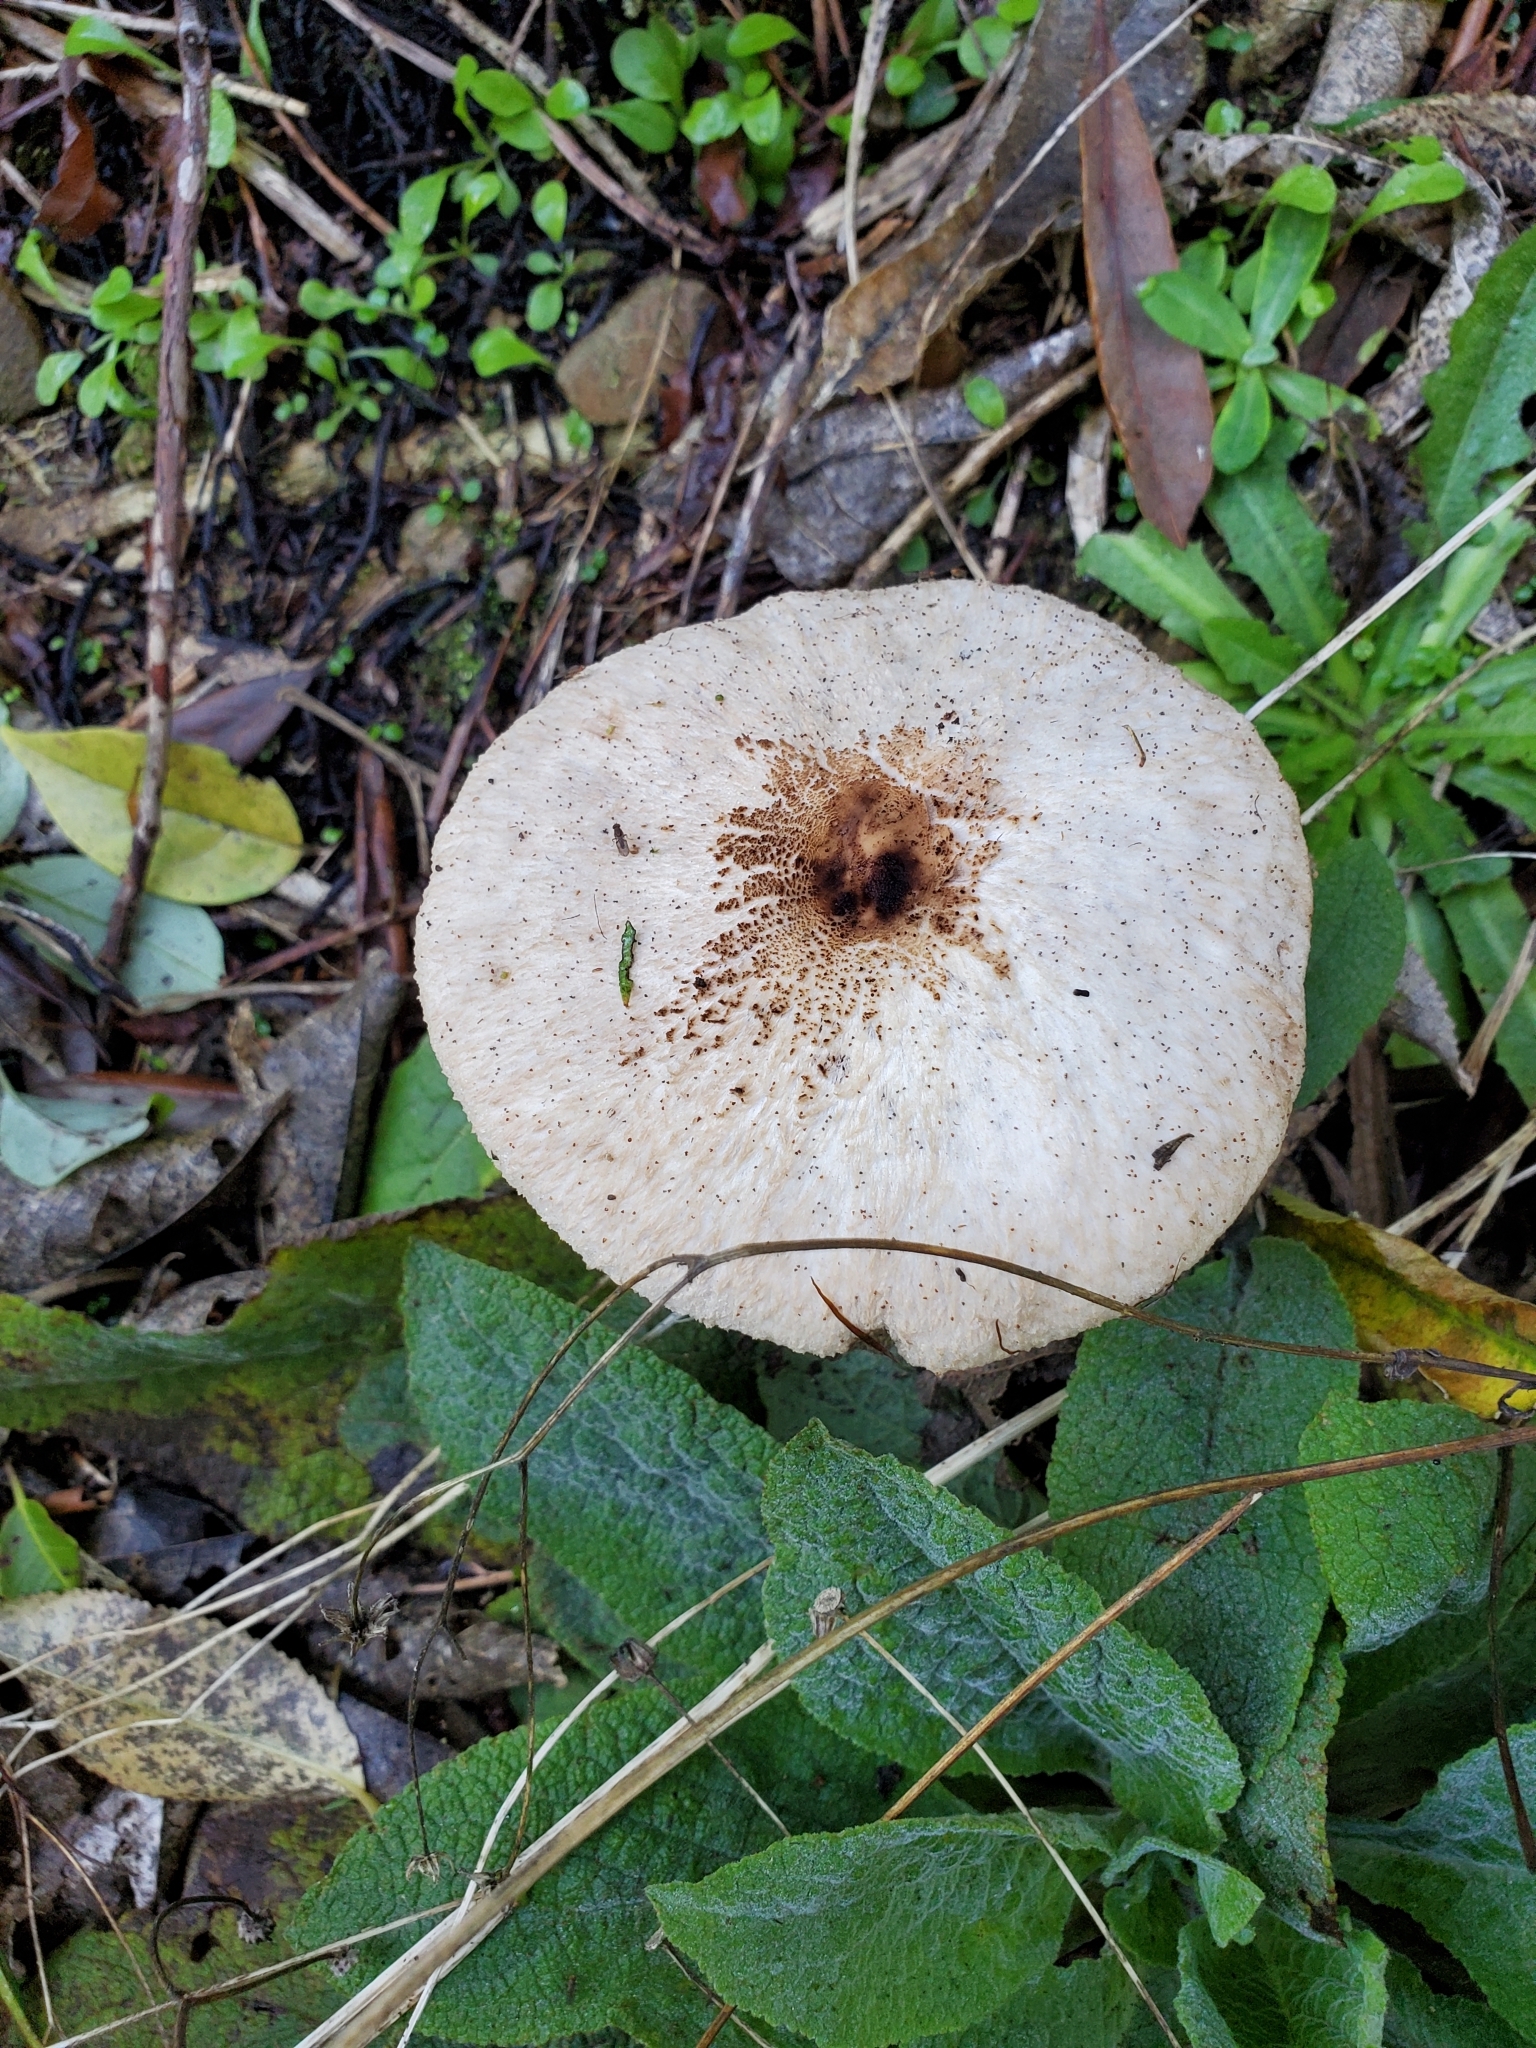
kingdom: Fungi
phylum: Basidiomycota
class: Agaricomycetes
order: Agaricales
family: Agaricaceae
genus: Macrolepiota
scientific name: Macrolepiota clelandii
